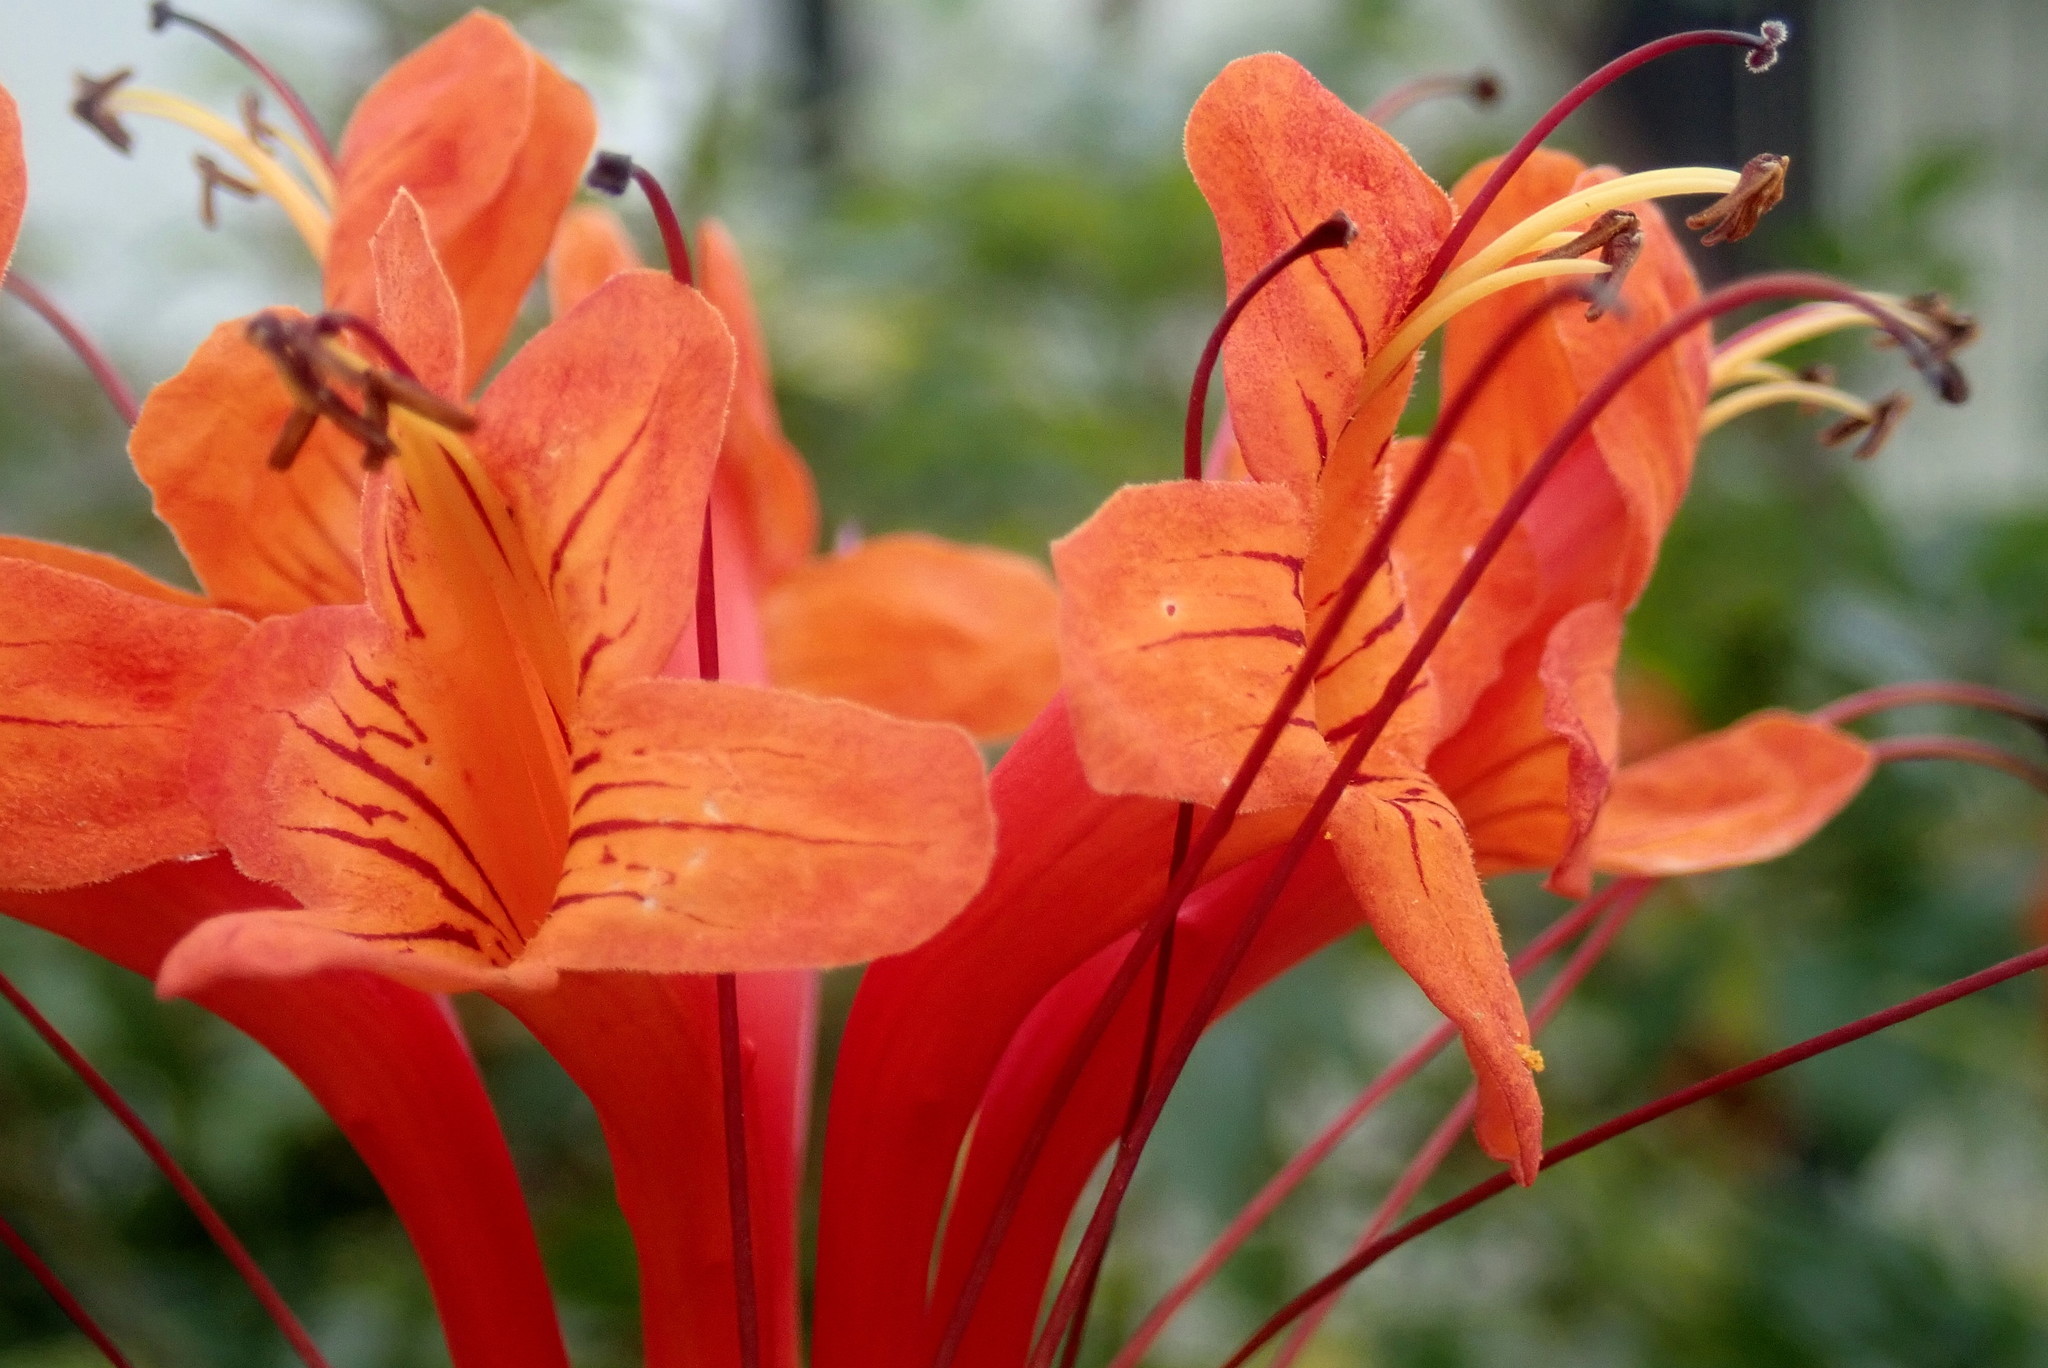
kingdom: Plantae
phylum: Tracheophyta
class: Magnoliopsida
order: Lamiales
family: Bignoniaceae
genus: Tecomaria
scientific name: Tecomaria capensis
